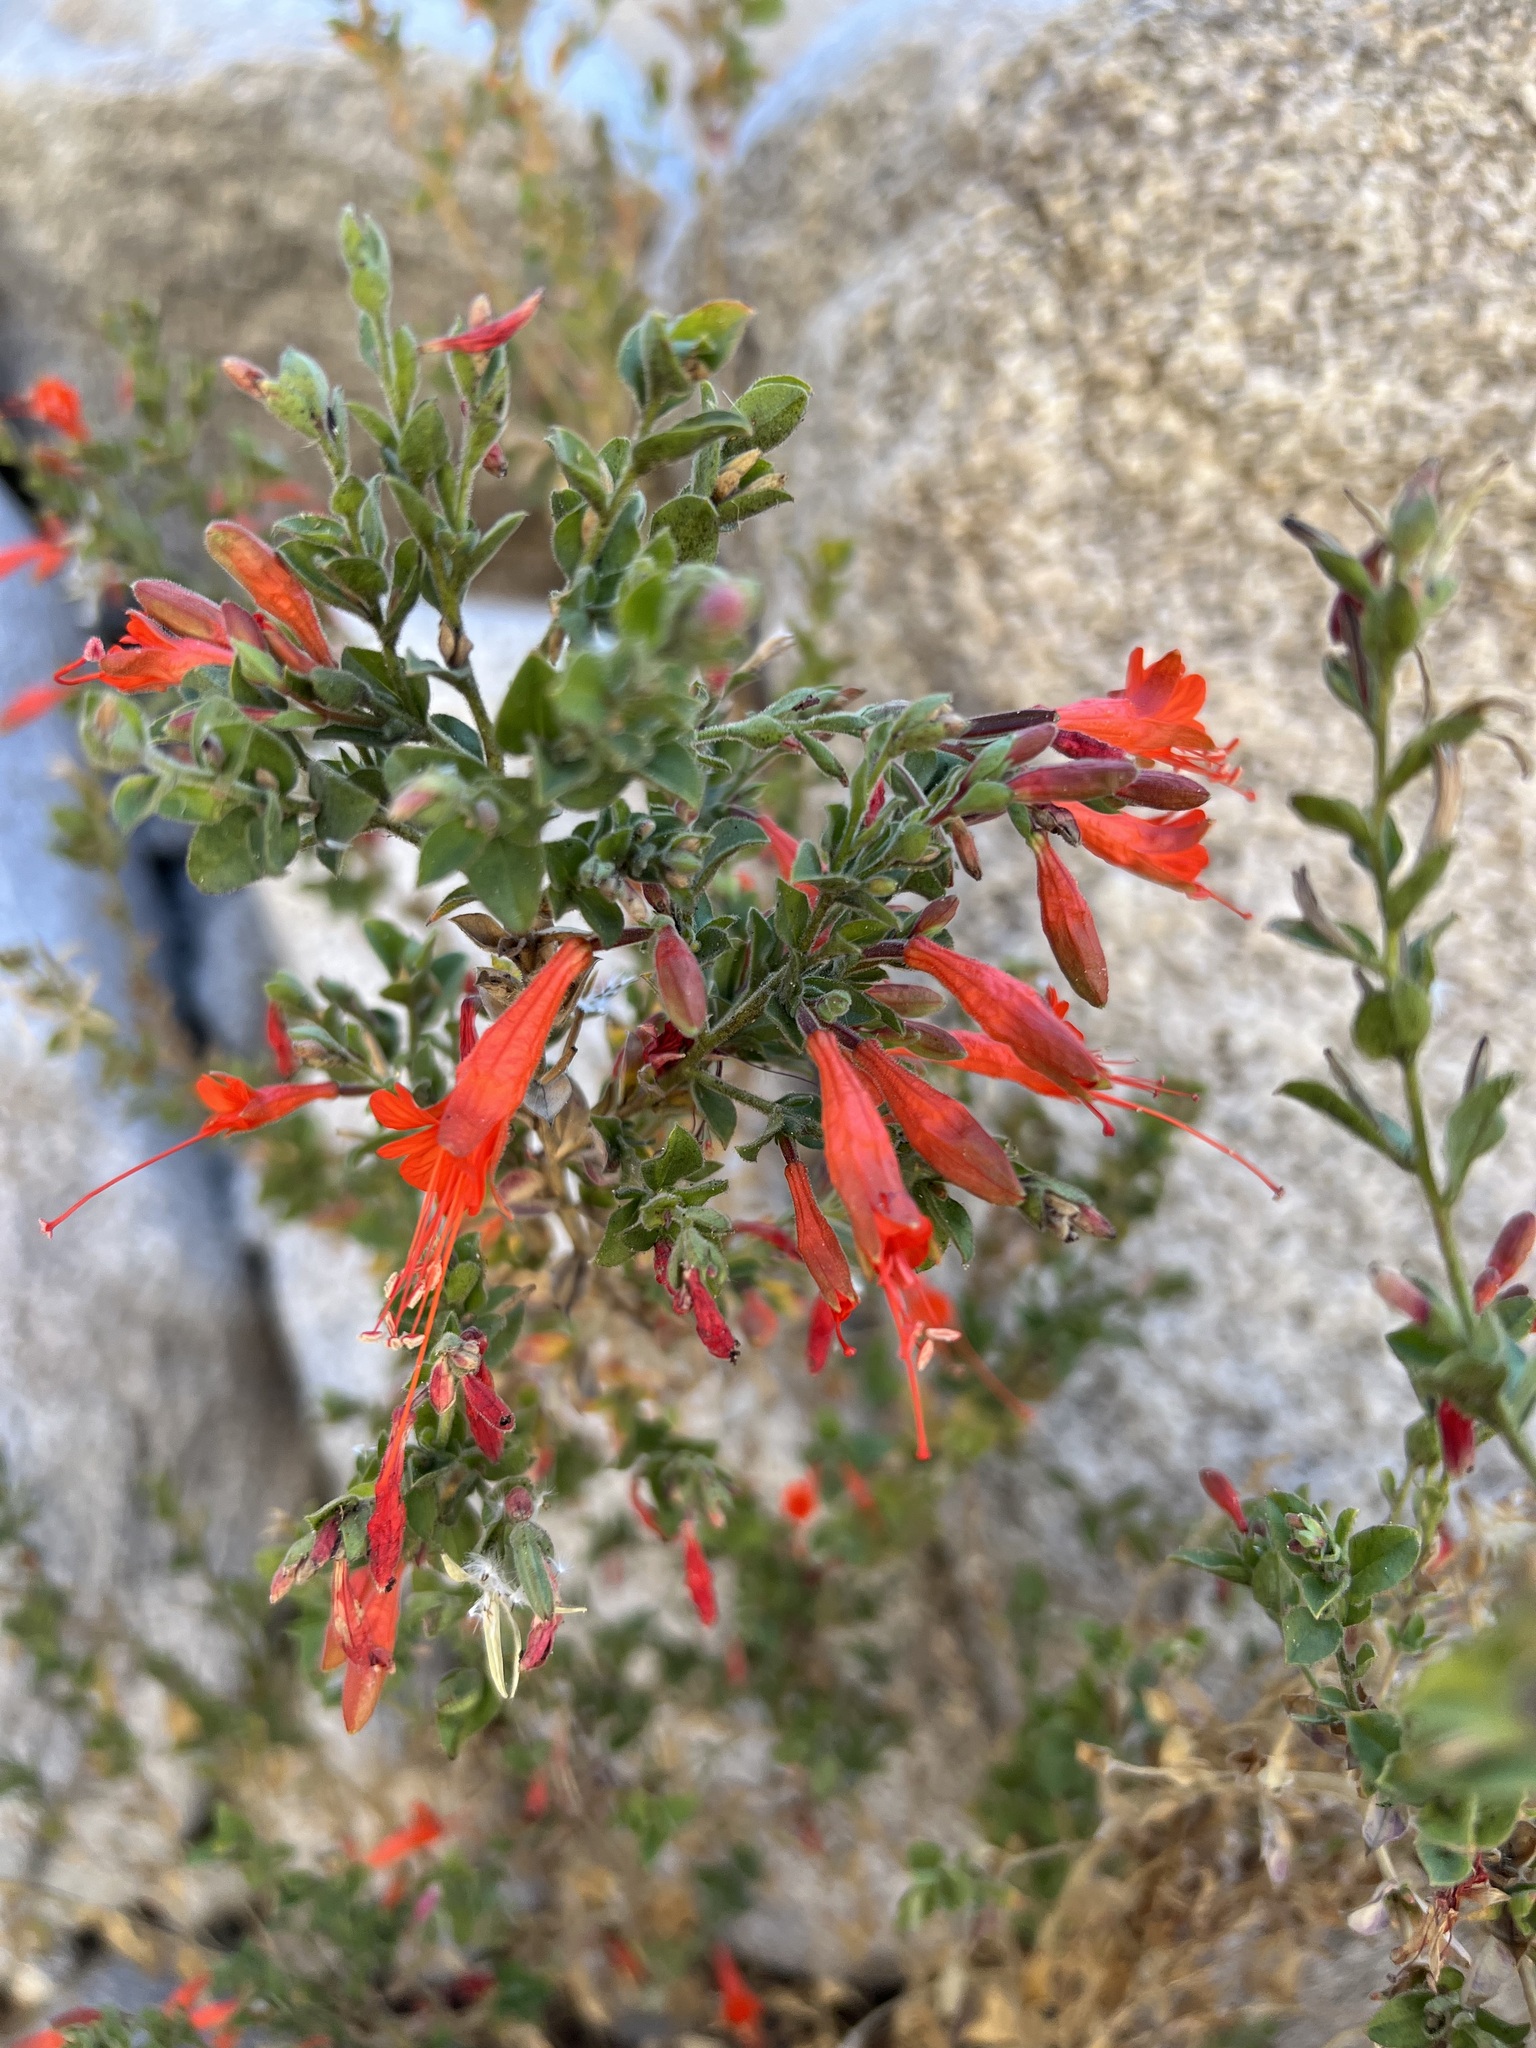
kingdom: Plantae
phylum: Tracheophyta
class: Magnoliopsida
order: Myrtales
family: Onagraceae
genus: Epilobium
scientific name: Epilobium canum
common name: California-fuchsia
